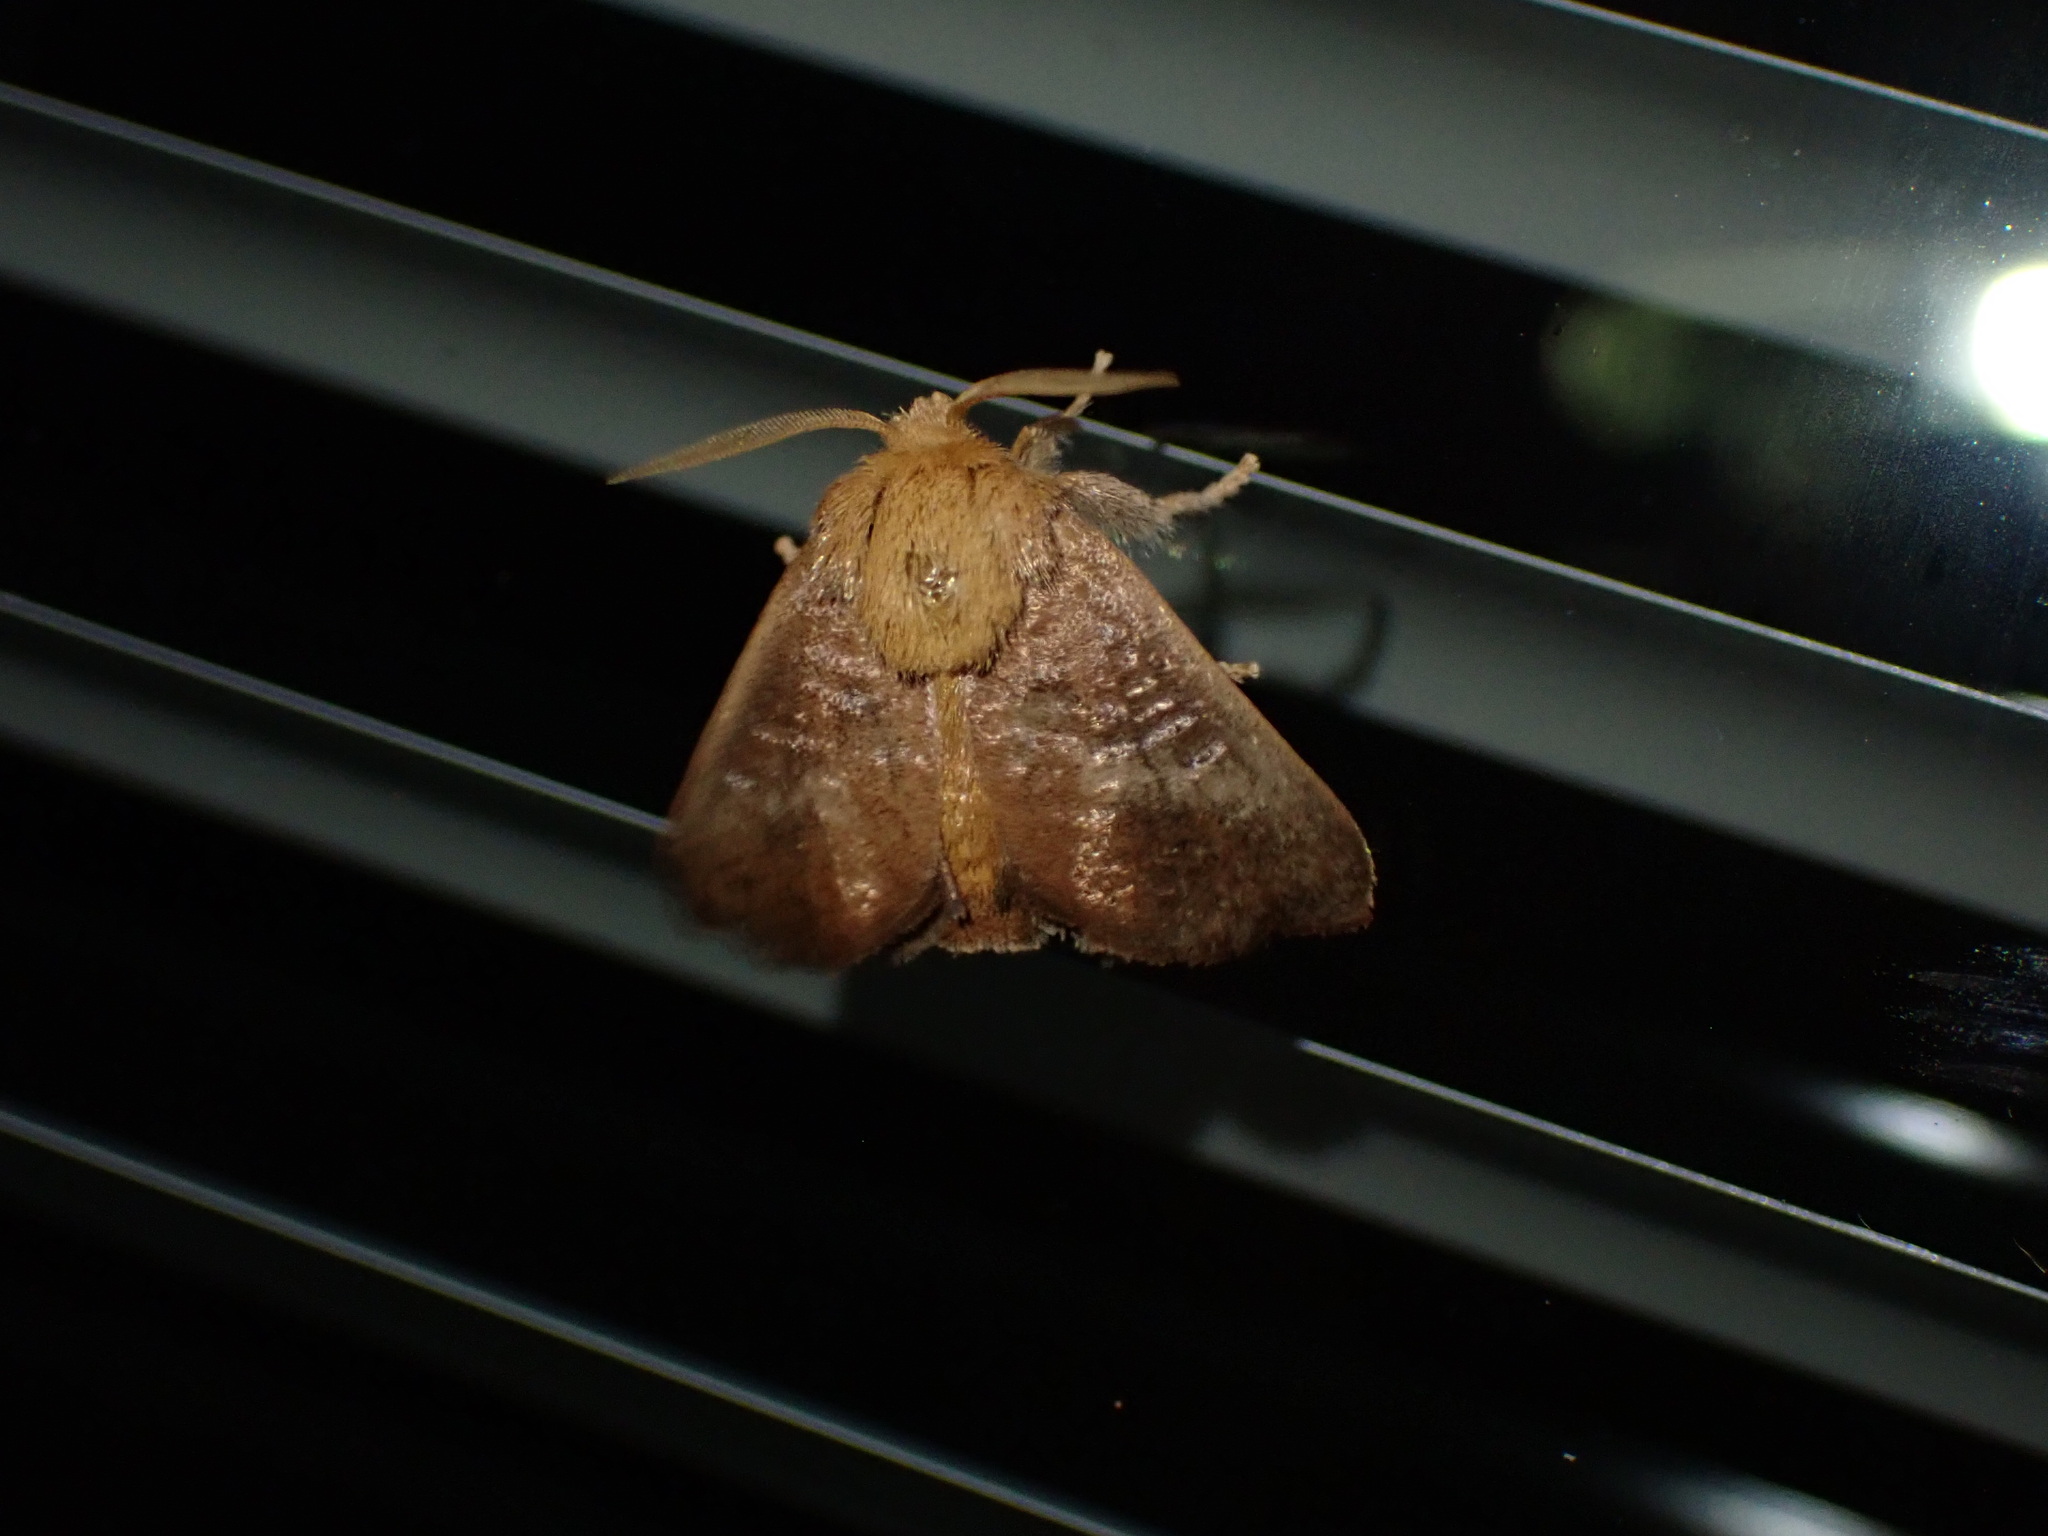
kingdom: Animalia
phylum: Arthropoda
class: Insecta
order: Lepidoptera
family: Limacodidae
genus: Isa
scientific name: Isa textula
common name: Crowned slug moth
